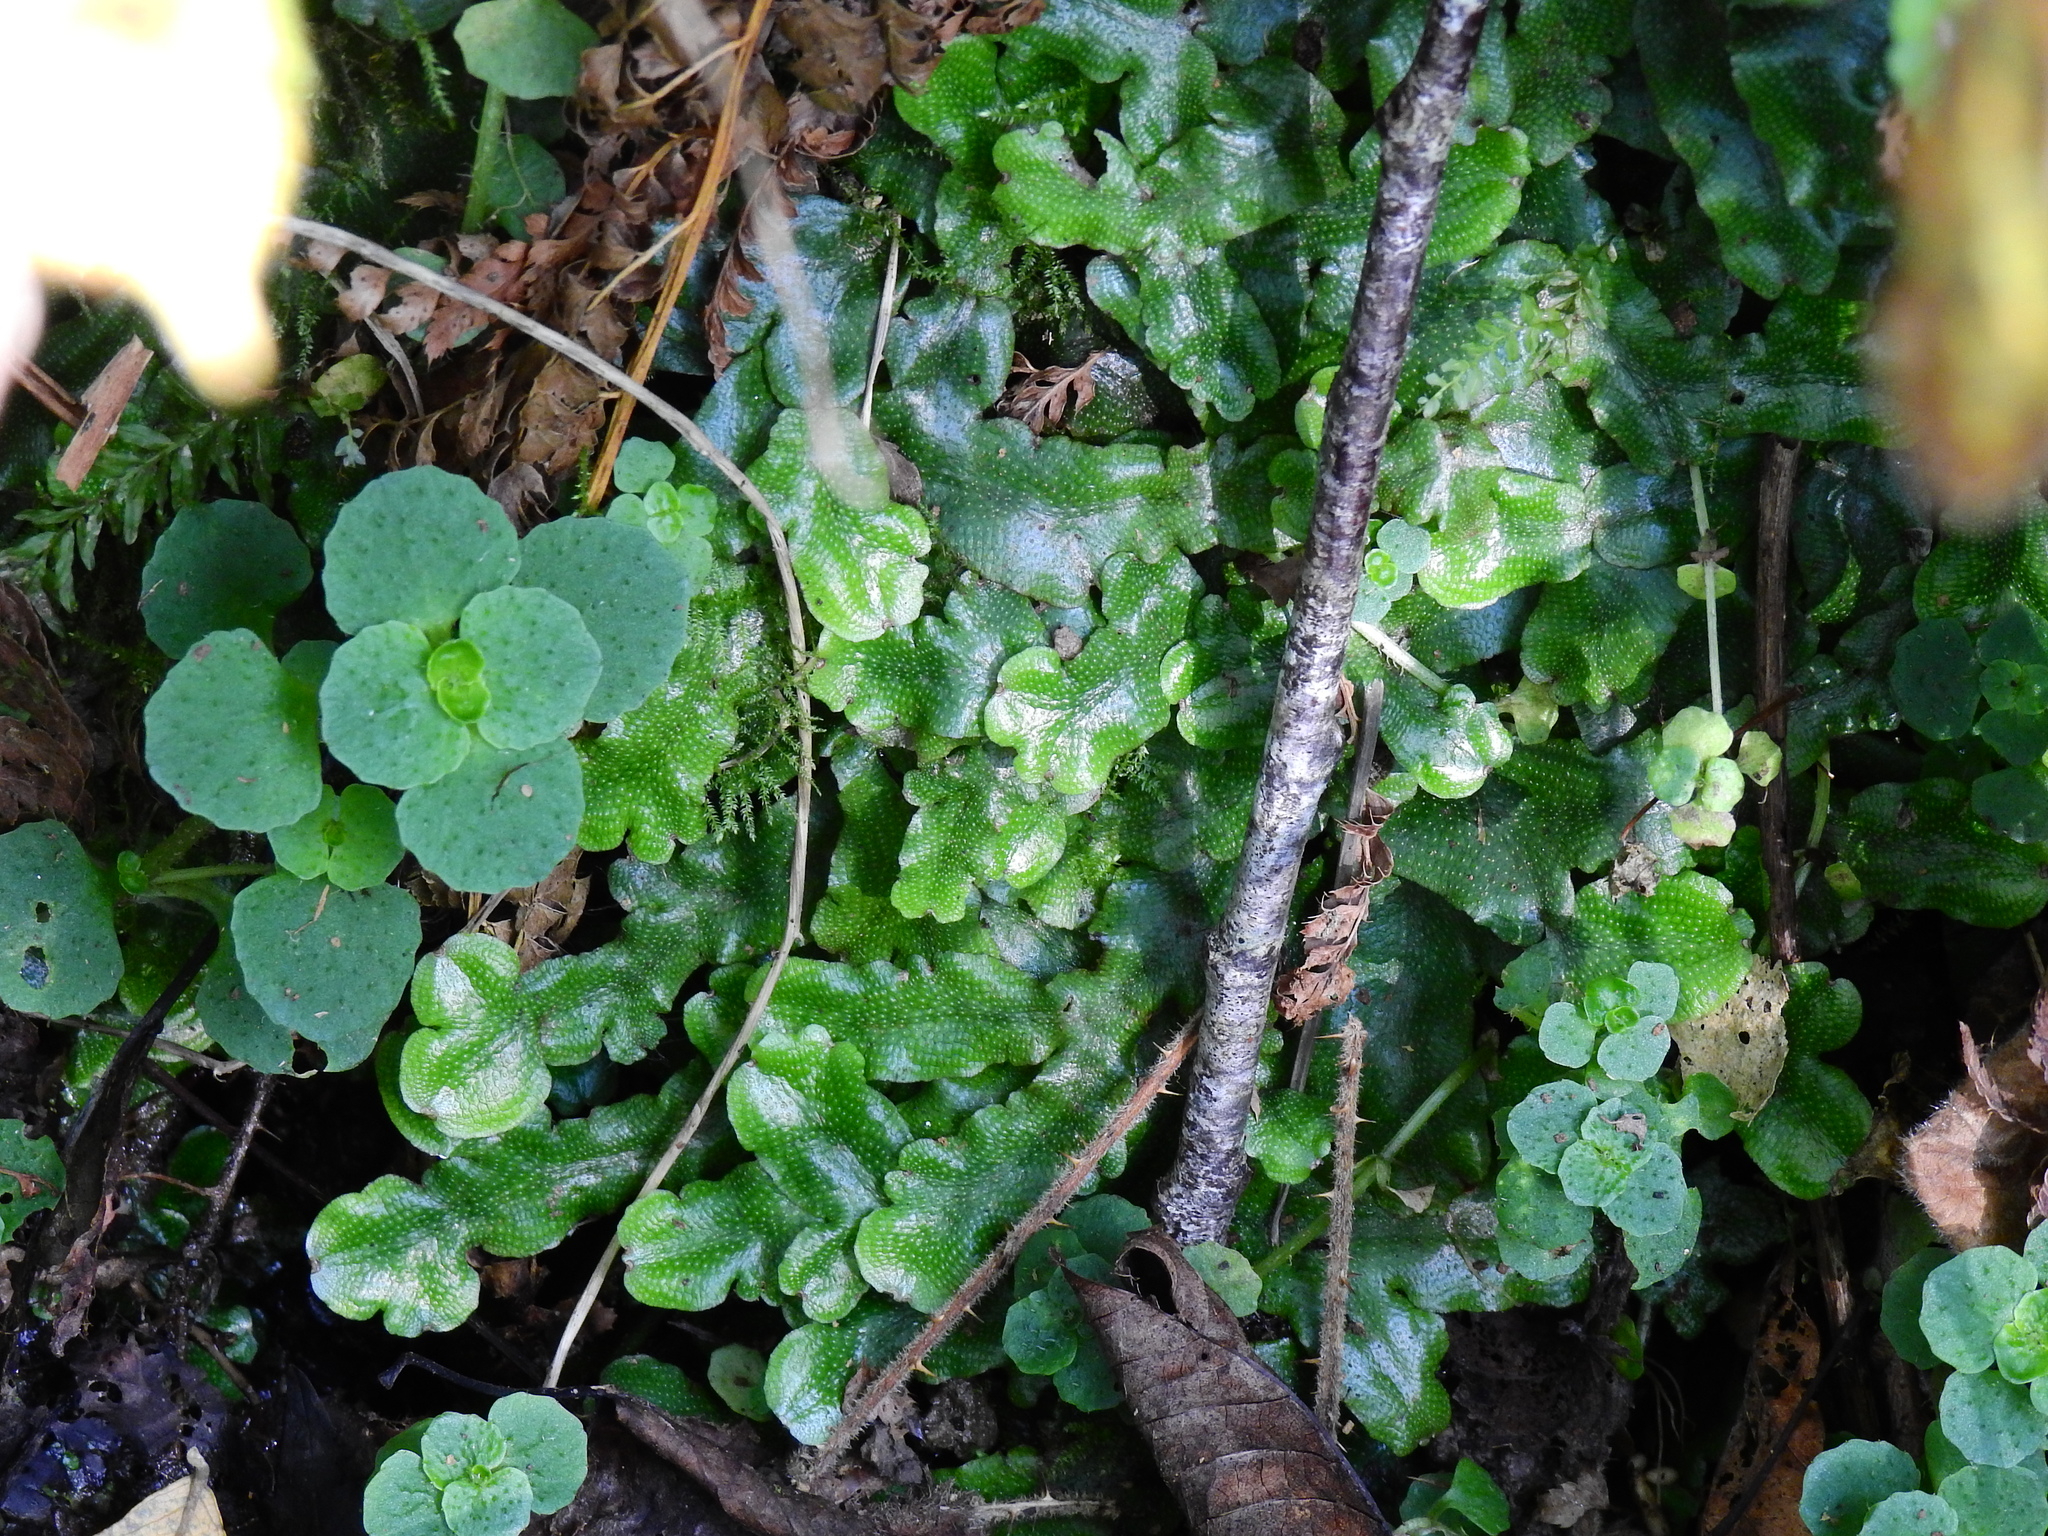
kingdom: Plantae
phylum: Marchantiophyta
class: Marchantiopsida
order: Marchantiales
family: Conocephalaceae
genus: Conocephalum
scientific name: Conocephalum conicum
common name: Great scented liverwort
